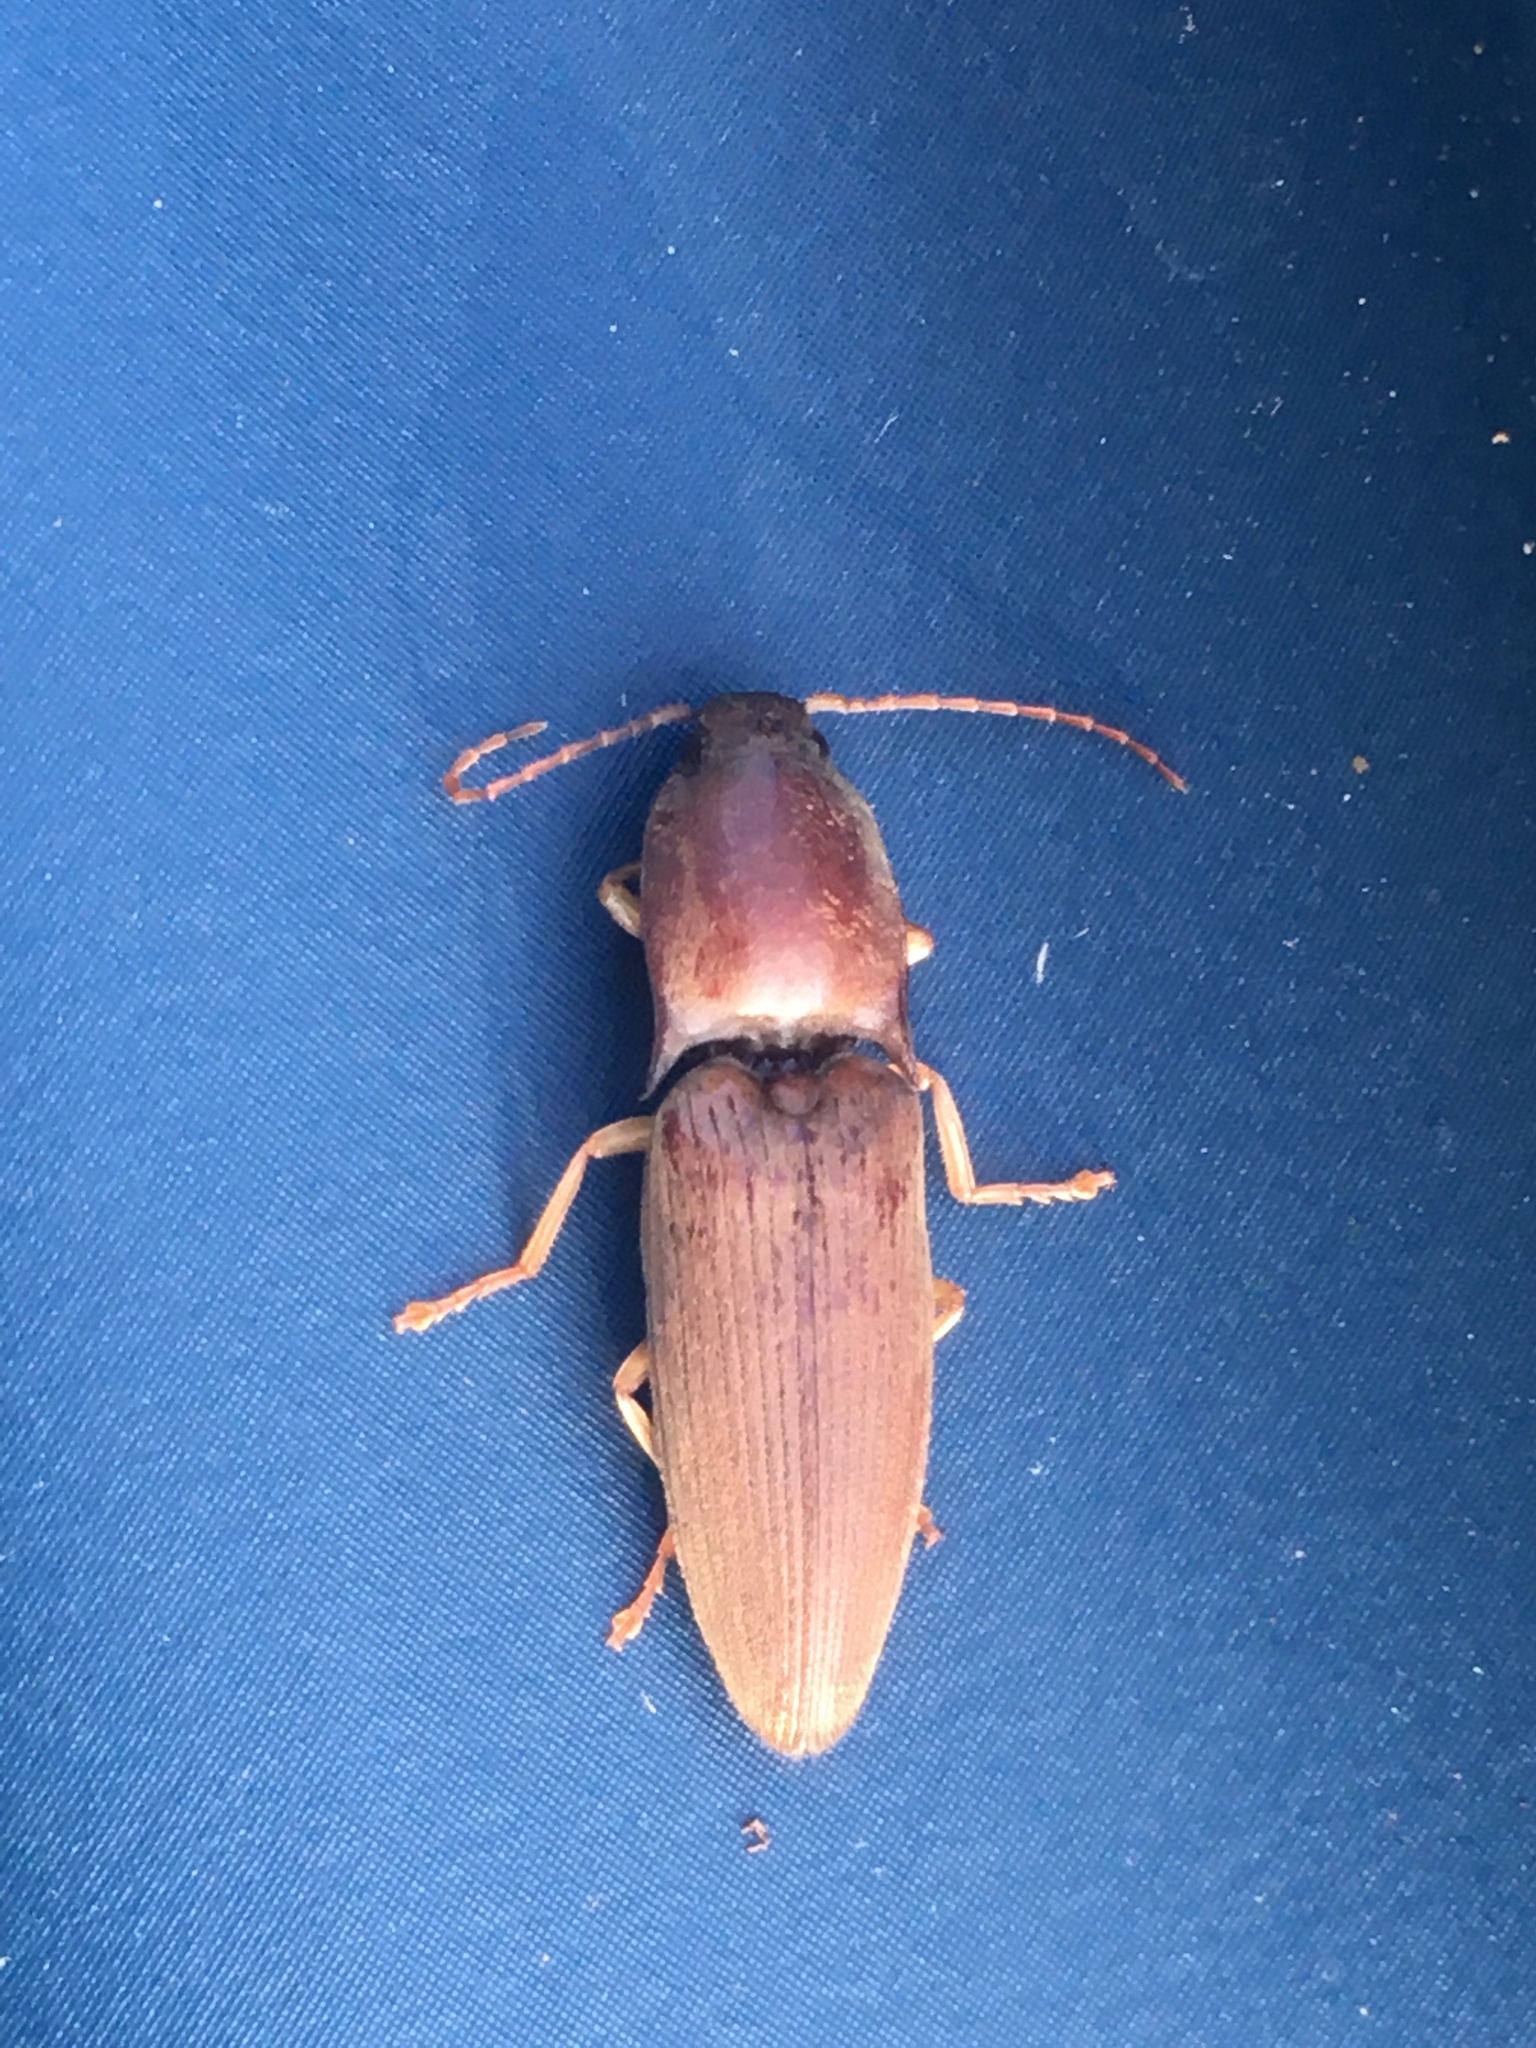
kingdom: Animalia
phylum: Arthropoda
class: Insecta
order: Coleoptera
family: Elateridae
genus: Monocrepidius
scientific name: Monocrepidius lividus
